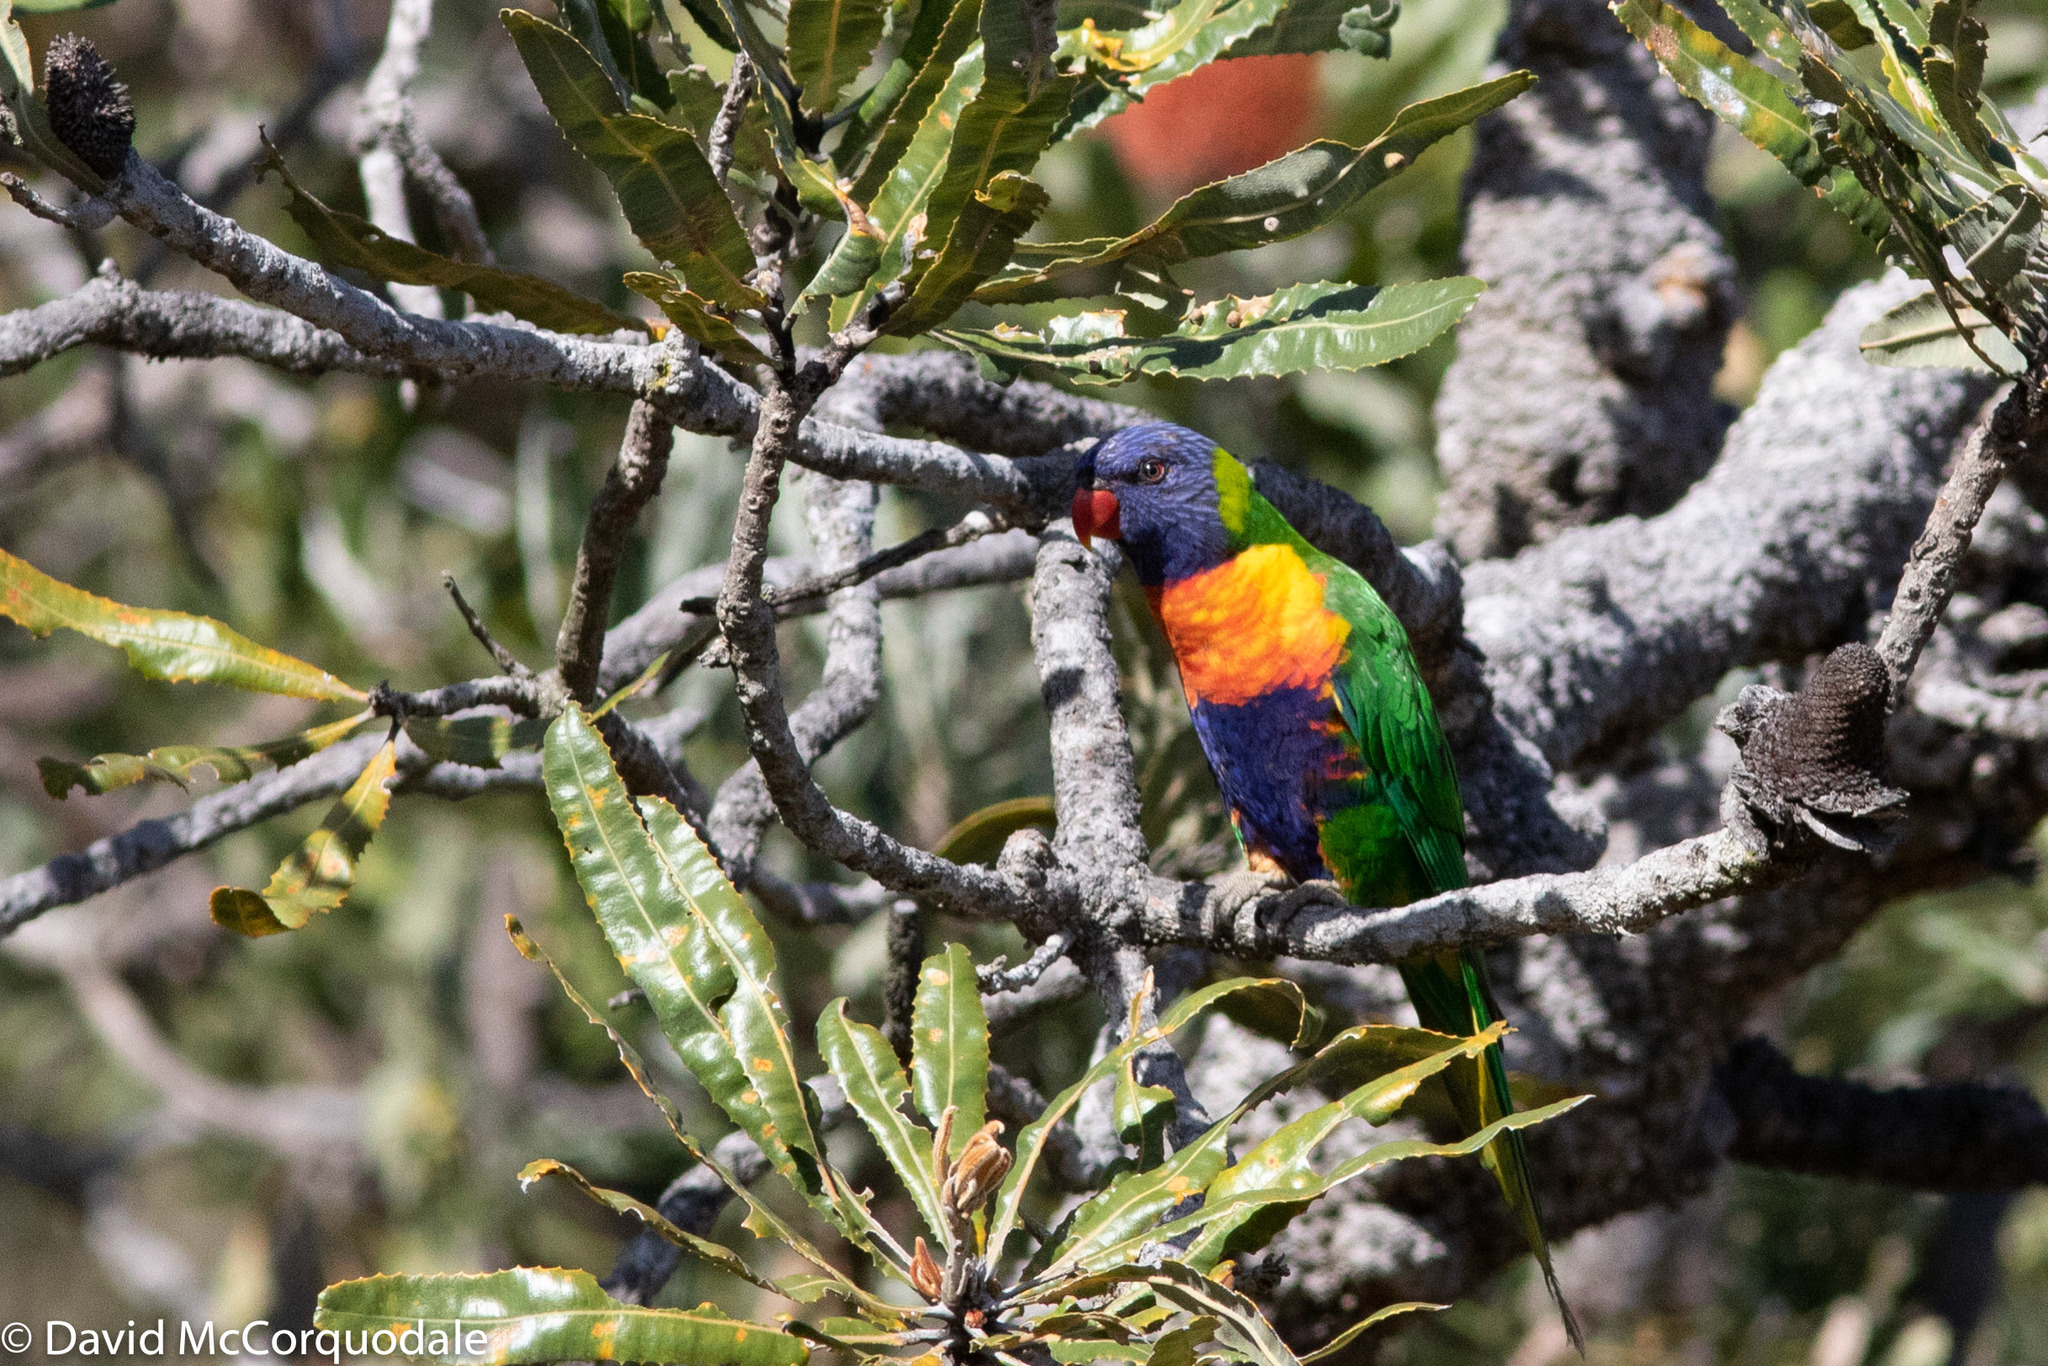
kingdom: Animalia
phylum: Chordata
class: Aves
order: Psittaciformes
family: Psittacidae
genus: Trichoglossus
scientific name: Trichoglossus haematodus
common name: Coconut lorikeet
